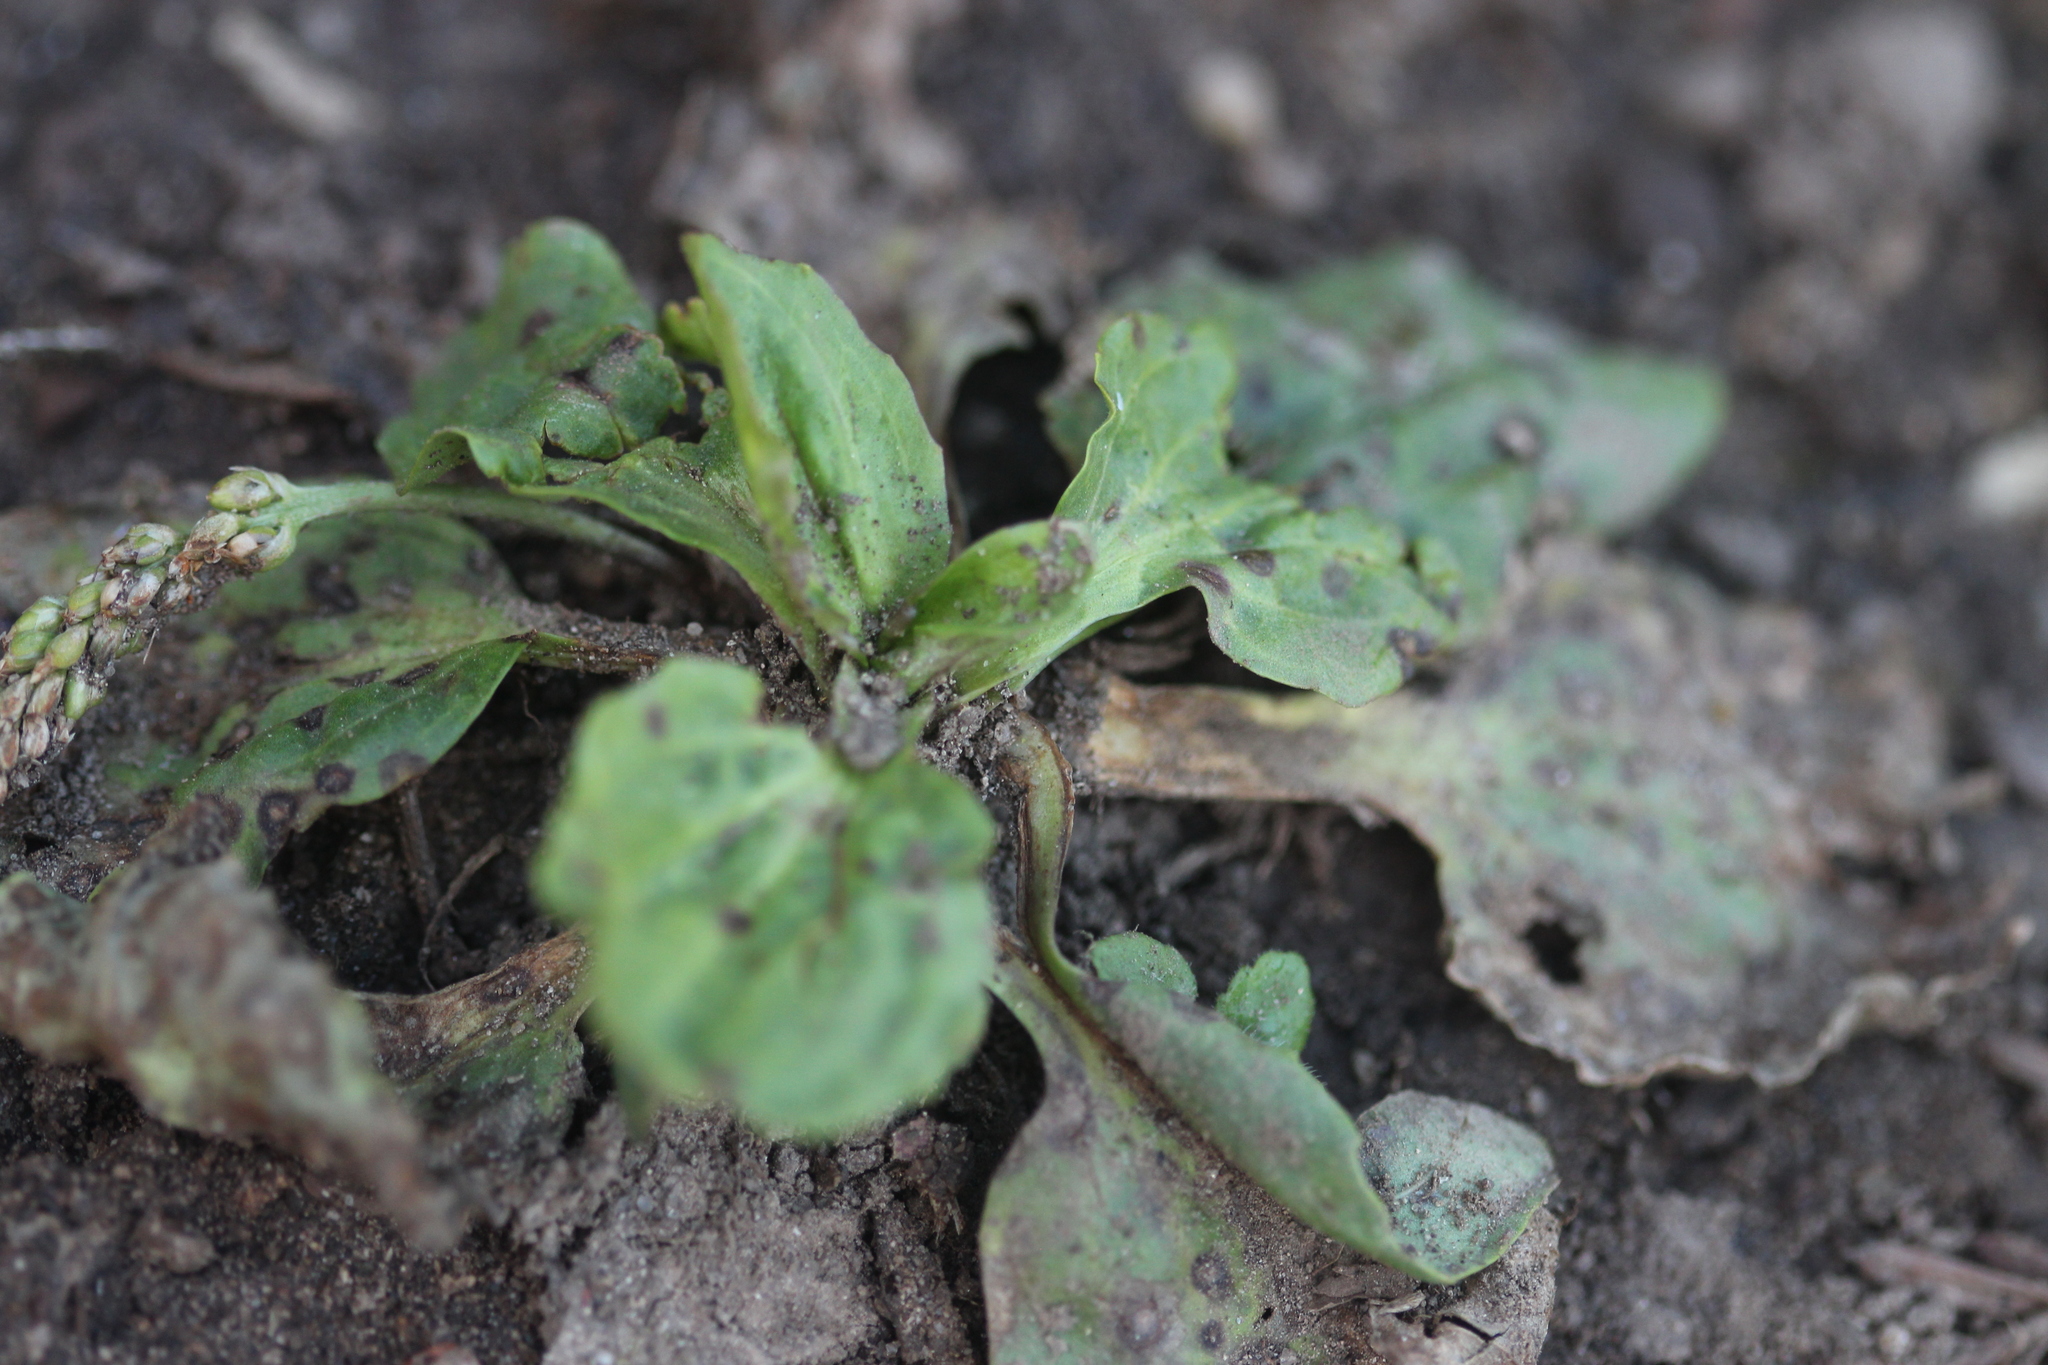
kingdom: Plantae
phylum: Tracheophyta
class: Magnoliopsida
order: Lamiales
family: Plantaginaceae
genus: Plantago
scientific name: Plantago major
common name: Common plantain
